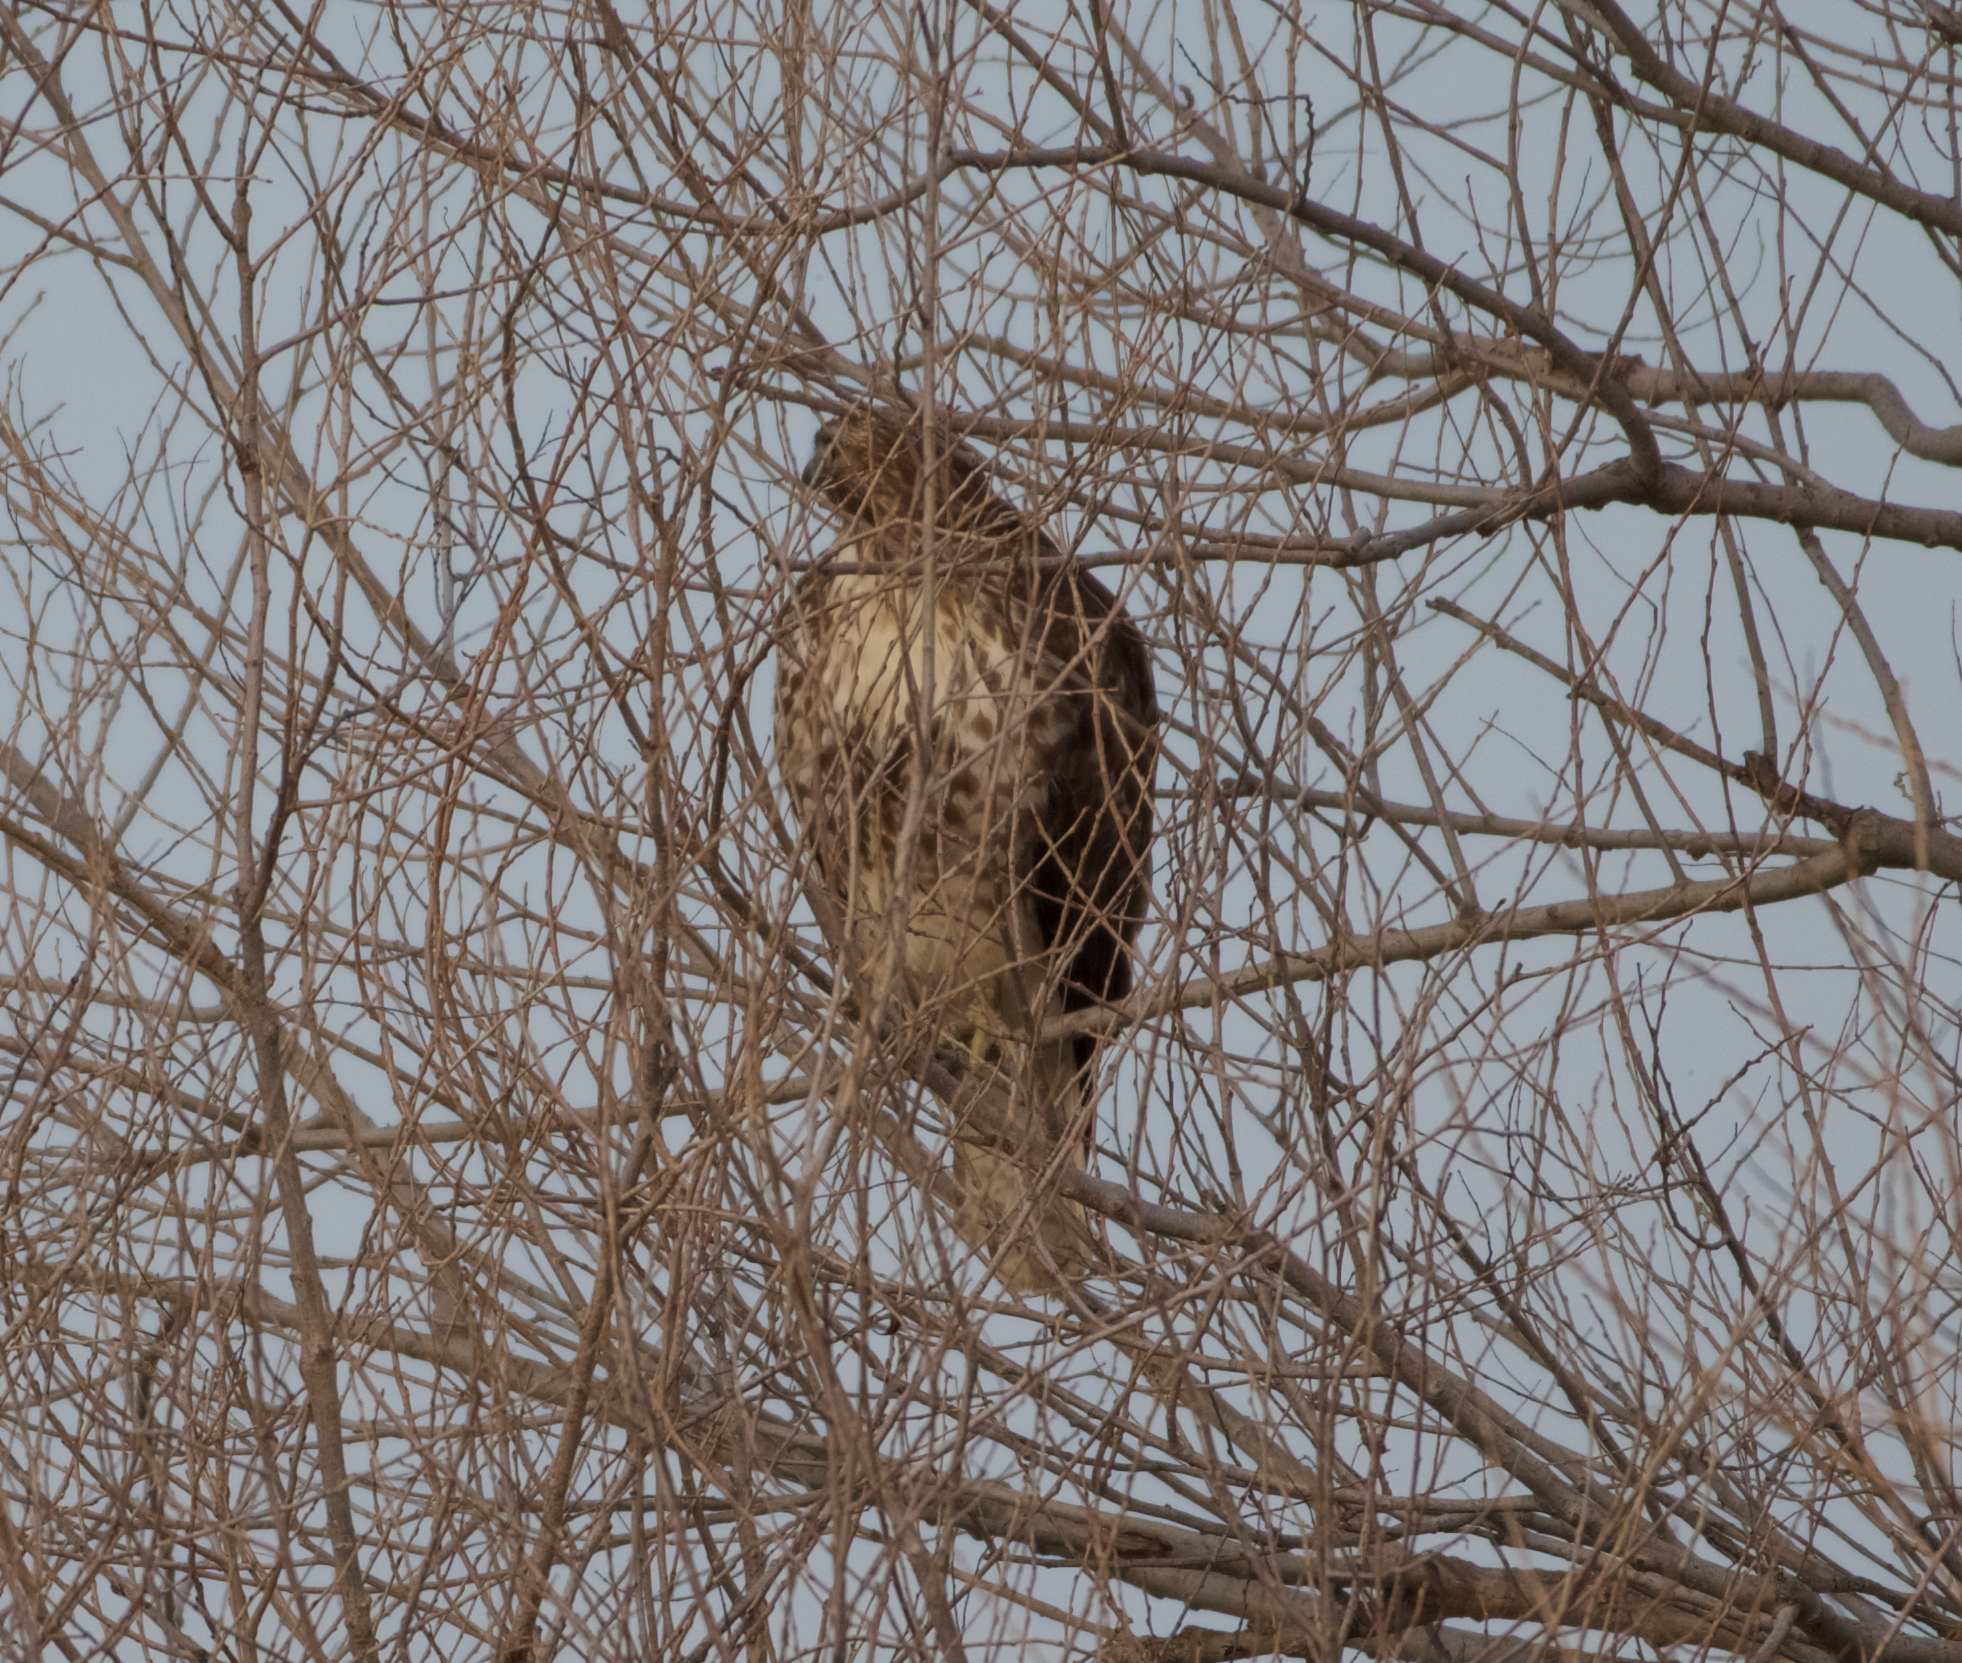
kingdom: Animalia
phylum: Chordata
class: Aves
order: Accipitriformes
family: Accipitridae
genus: Buteo
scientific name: Buteo jamaicensis
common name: Red-tailed hawk
